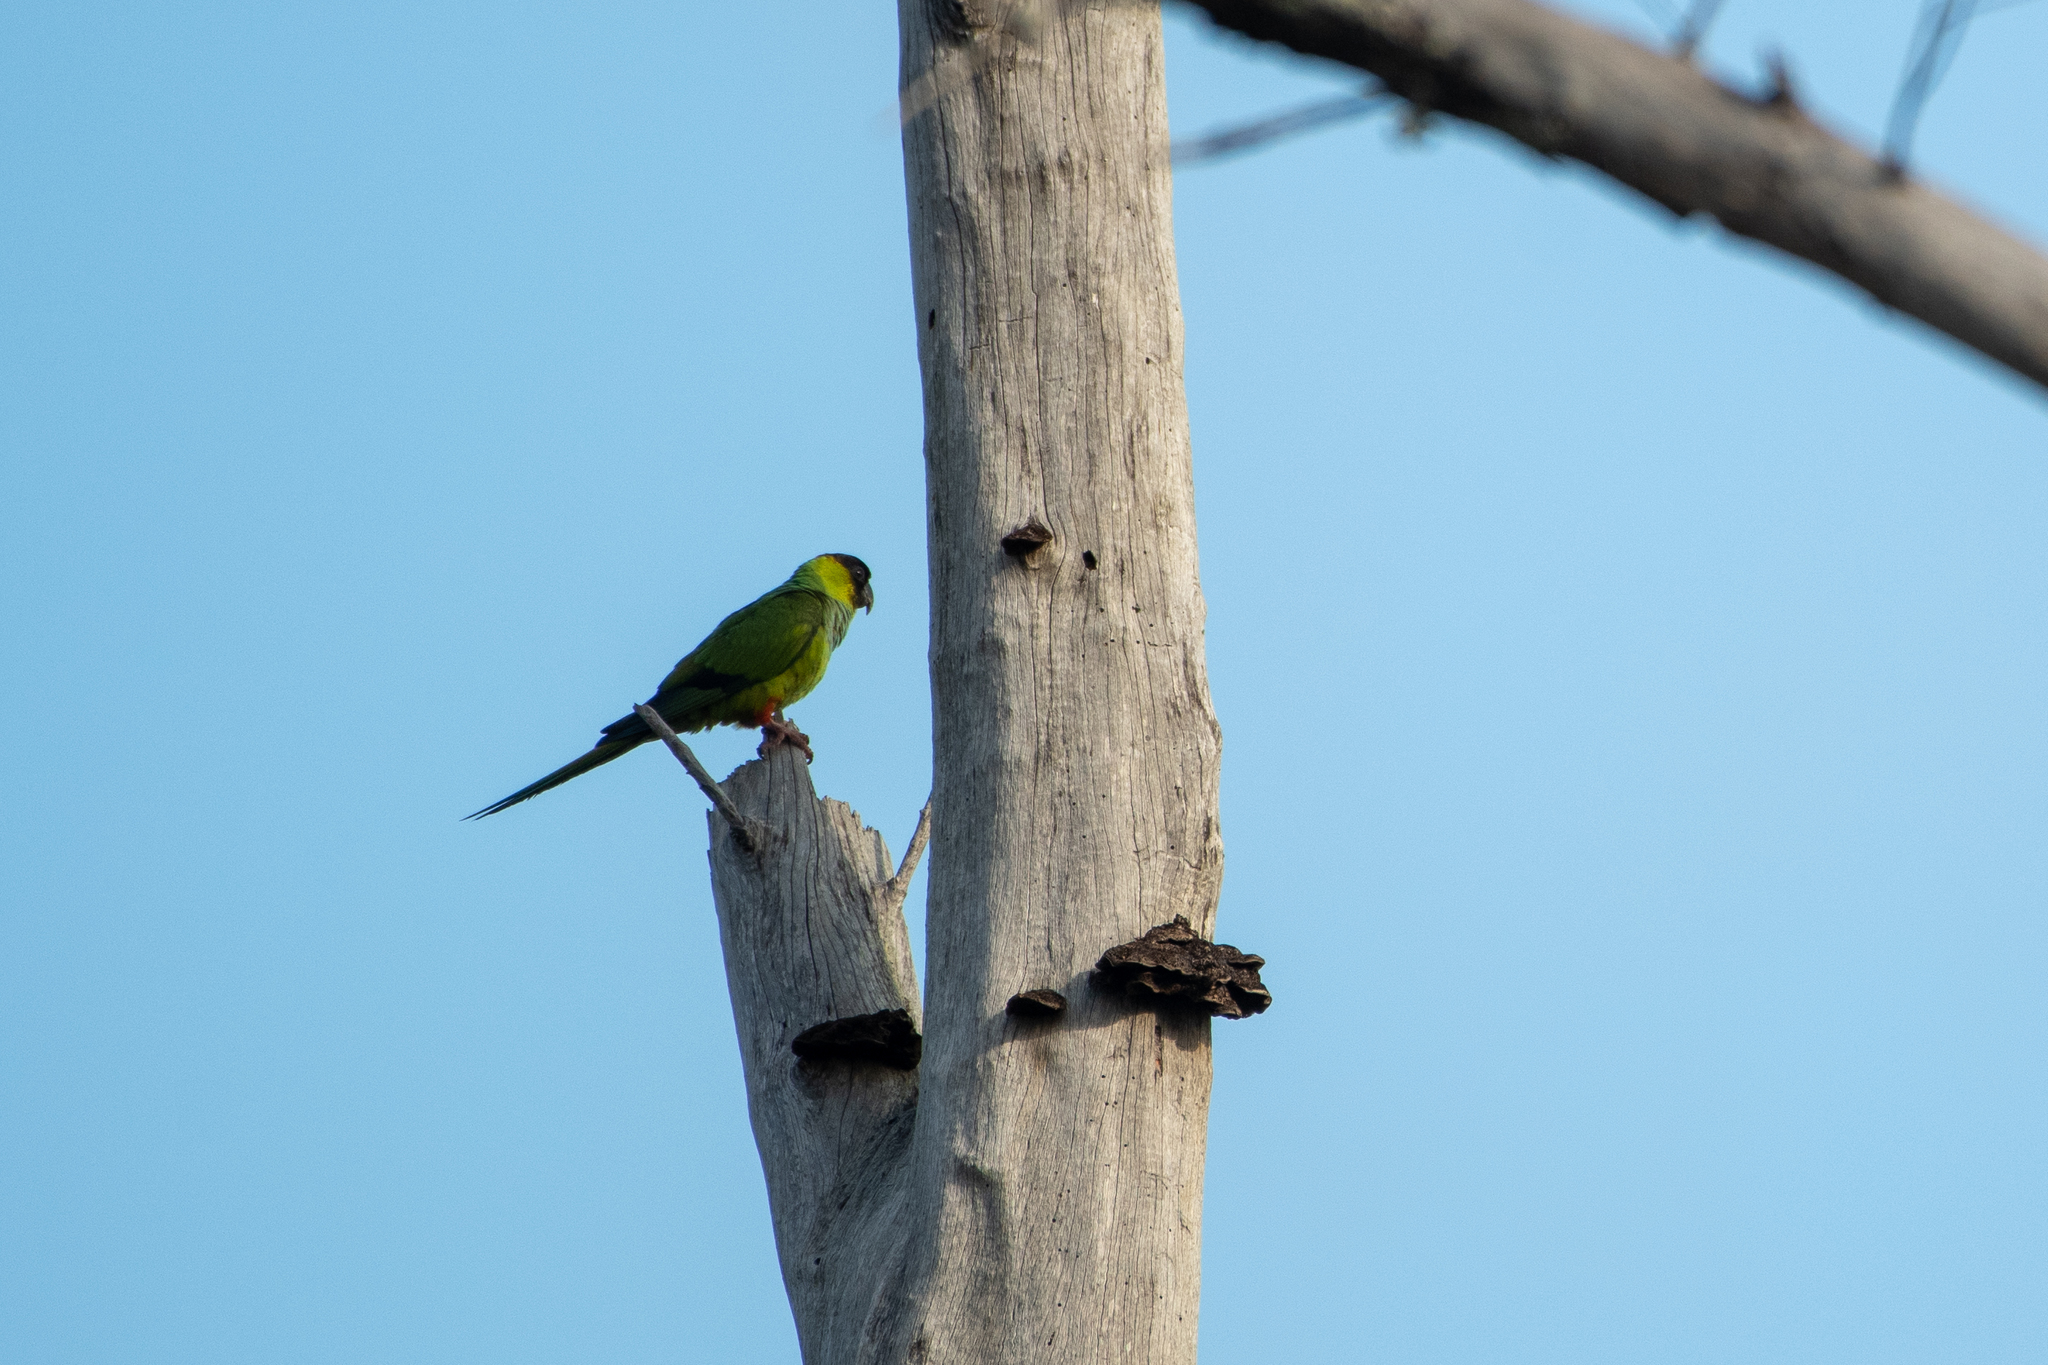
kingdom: Animalia
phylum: Chordata
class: Aves
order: Psittaciformes
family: Psittacidae
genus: Nandayus
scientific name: Nandayus nenday
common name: Nanday parakeet
